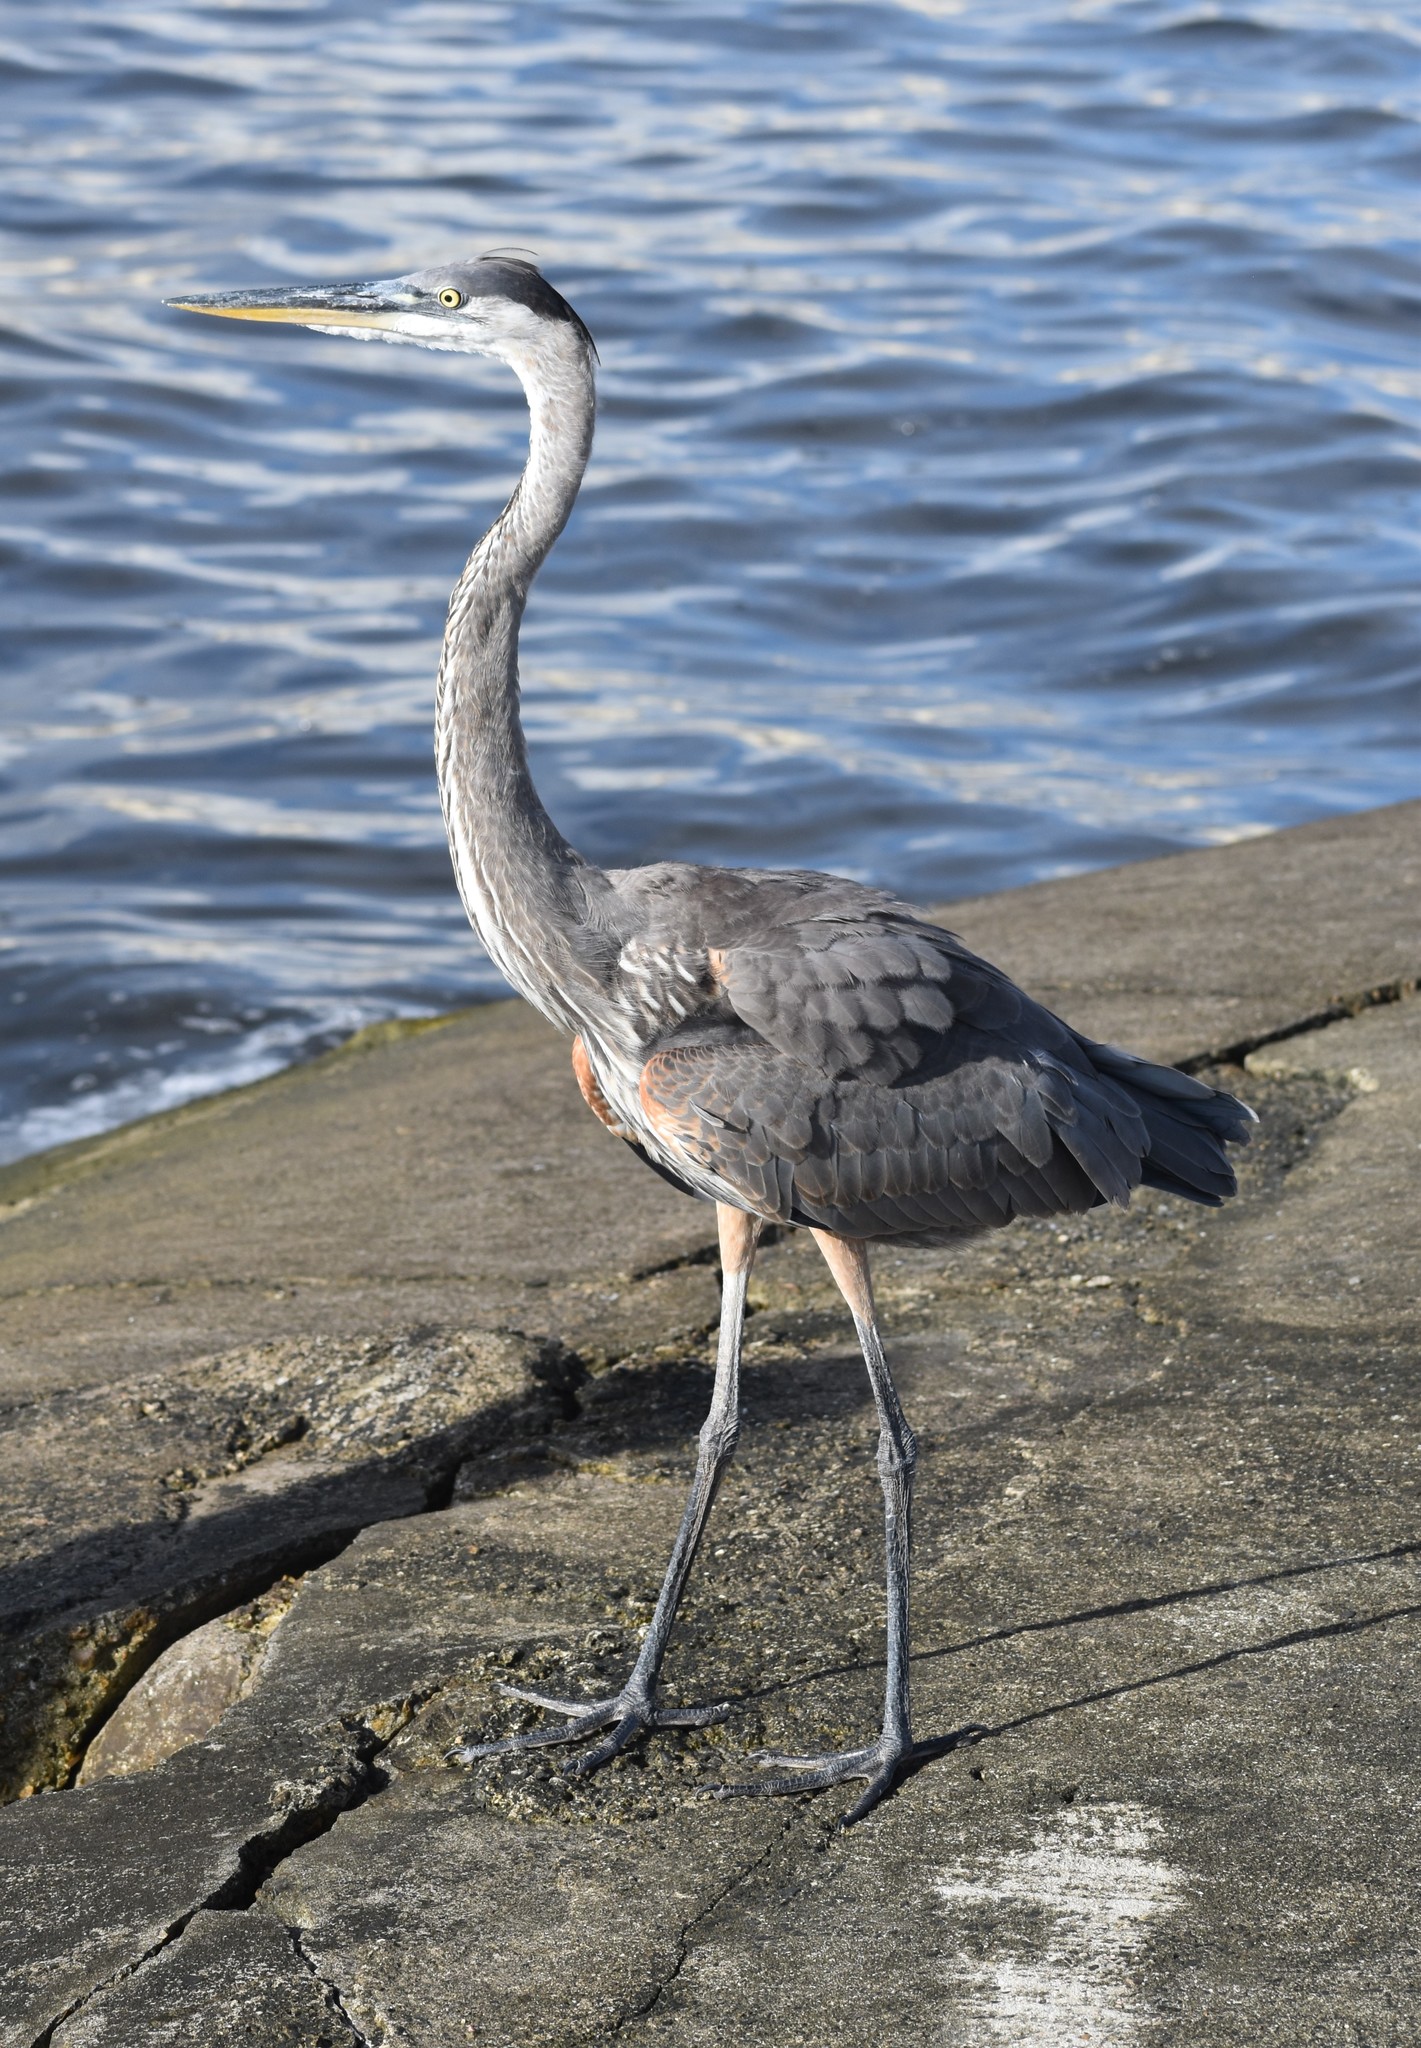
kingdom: Animalia
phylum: Chordata
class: Aves
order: Pelecaniformes
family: Ardeidae
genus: Ardea
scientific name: Ardea herodias
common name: Great blue heron
